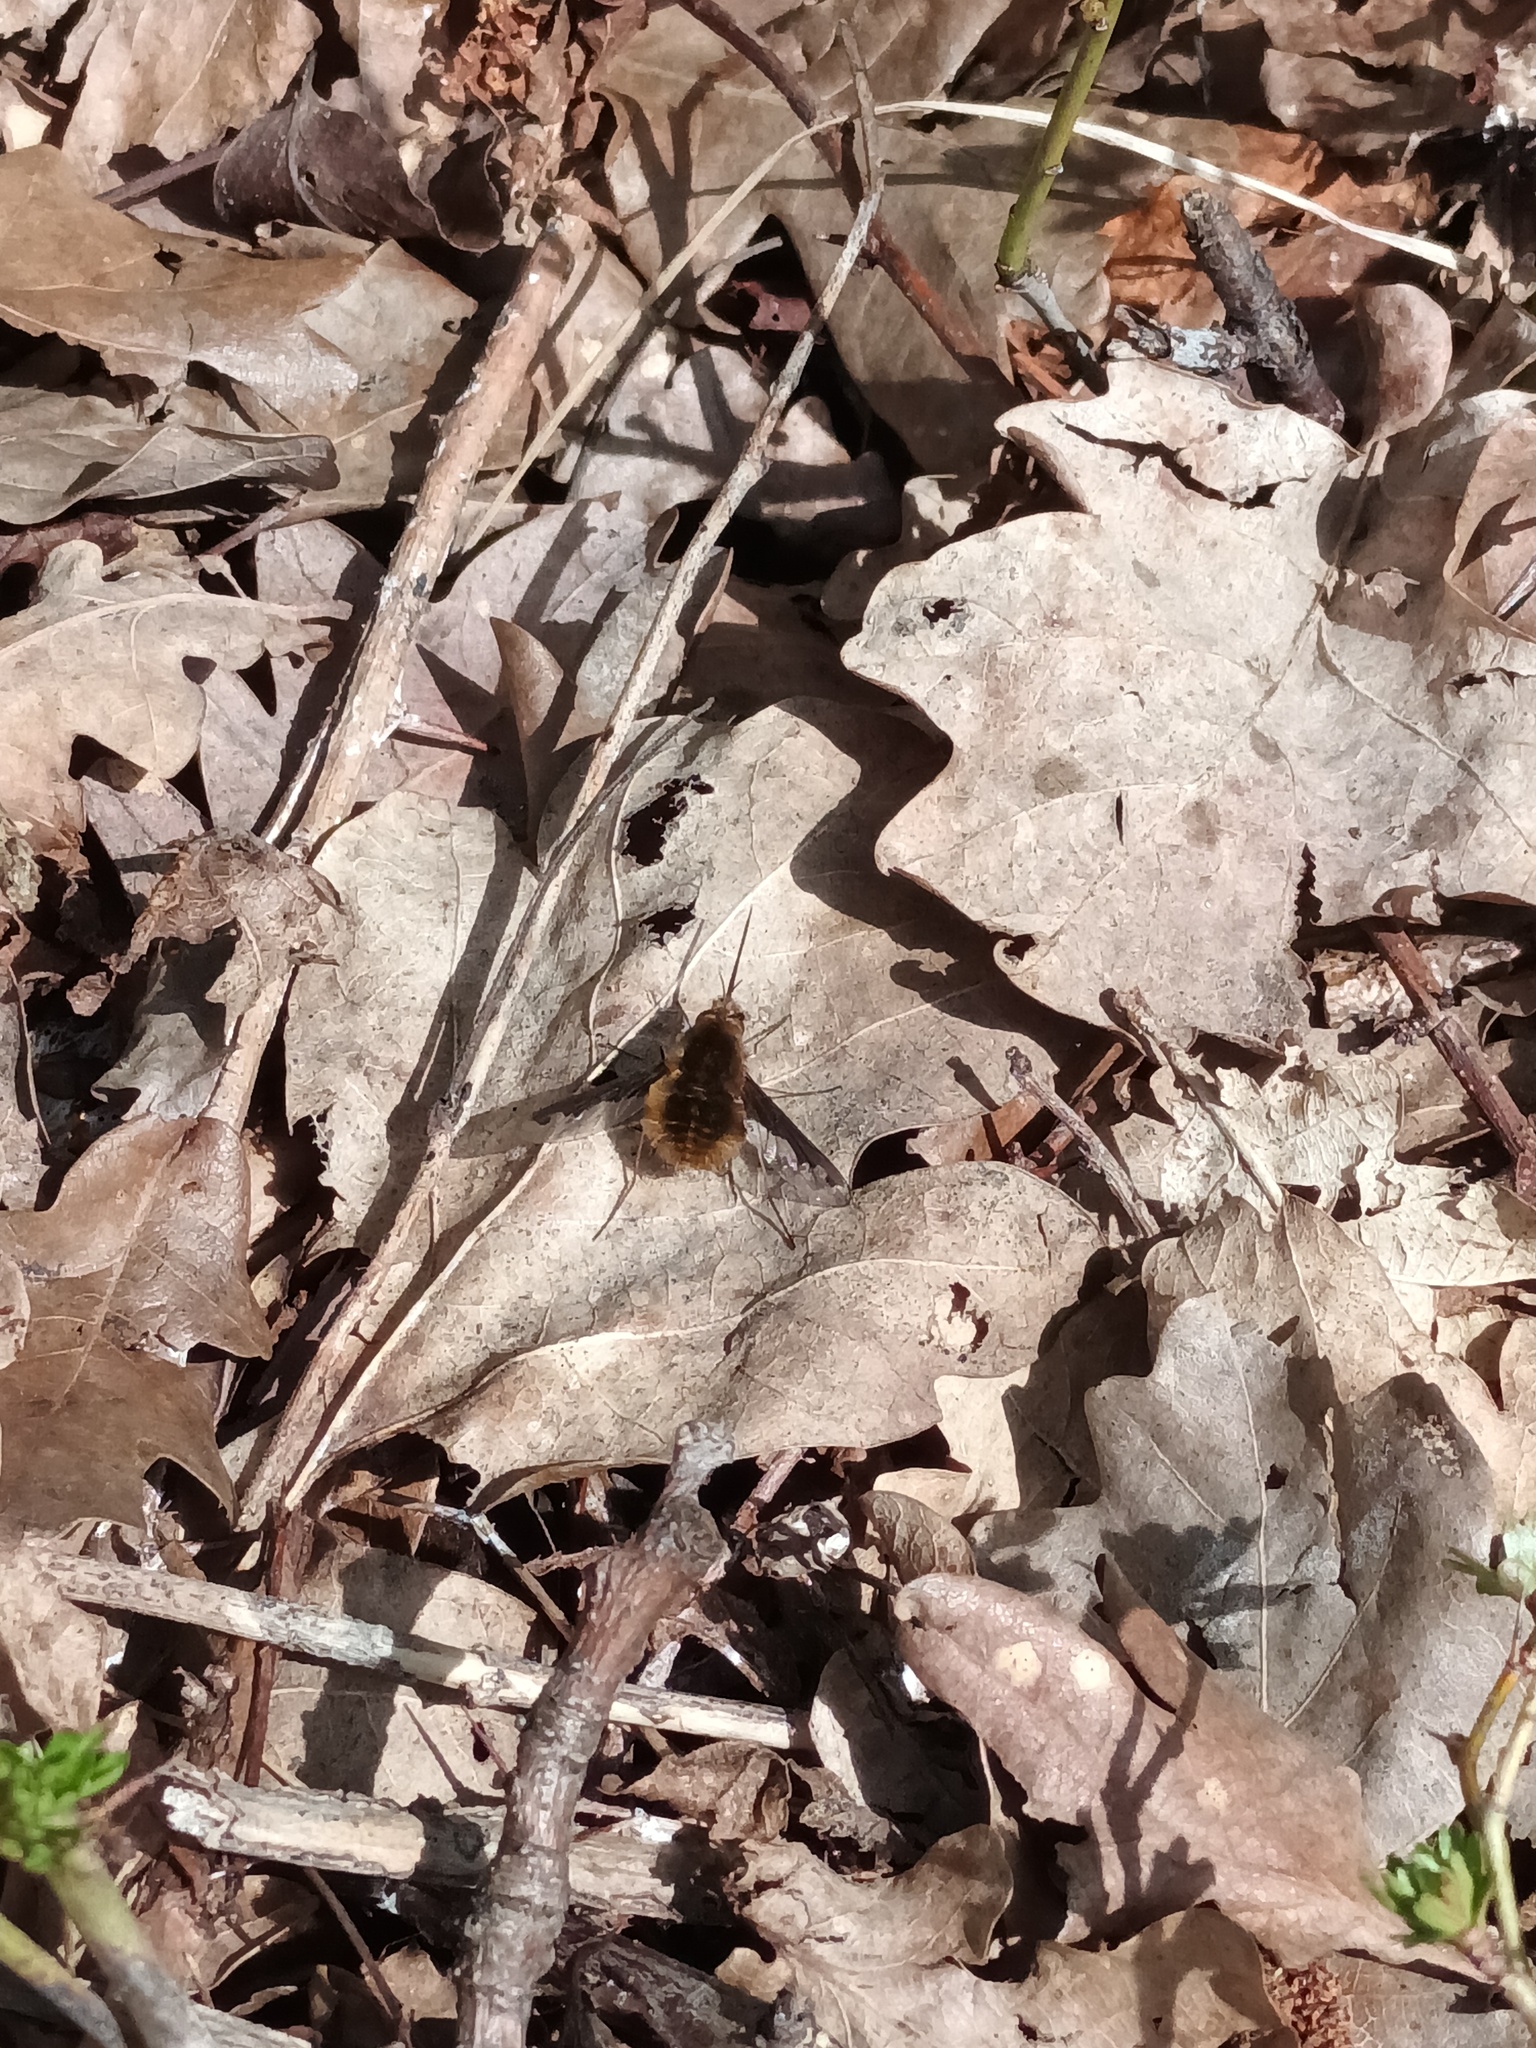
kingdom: Animalia
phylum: Arthropoda
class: Insecta
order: Diptera
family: Bombyliidae
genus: Bombylius
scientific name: Bombylius major
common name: Bee fly
